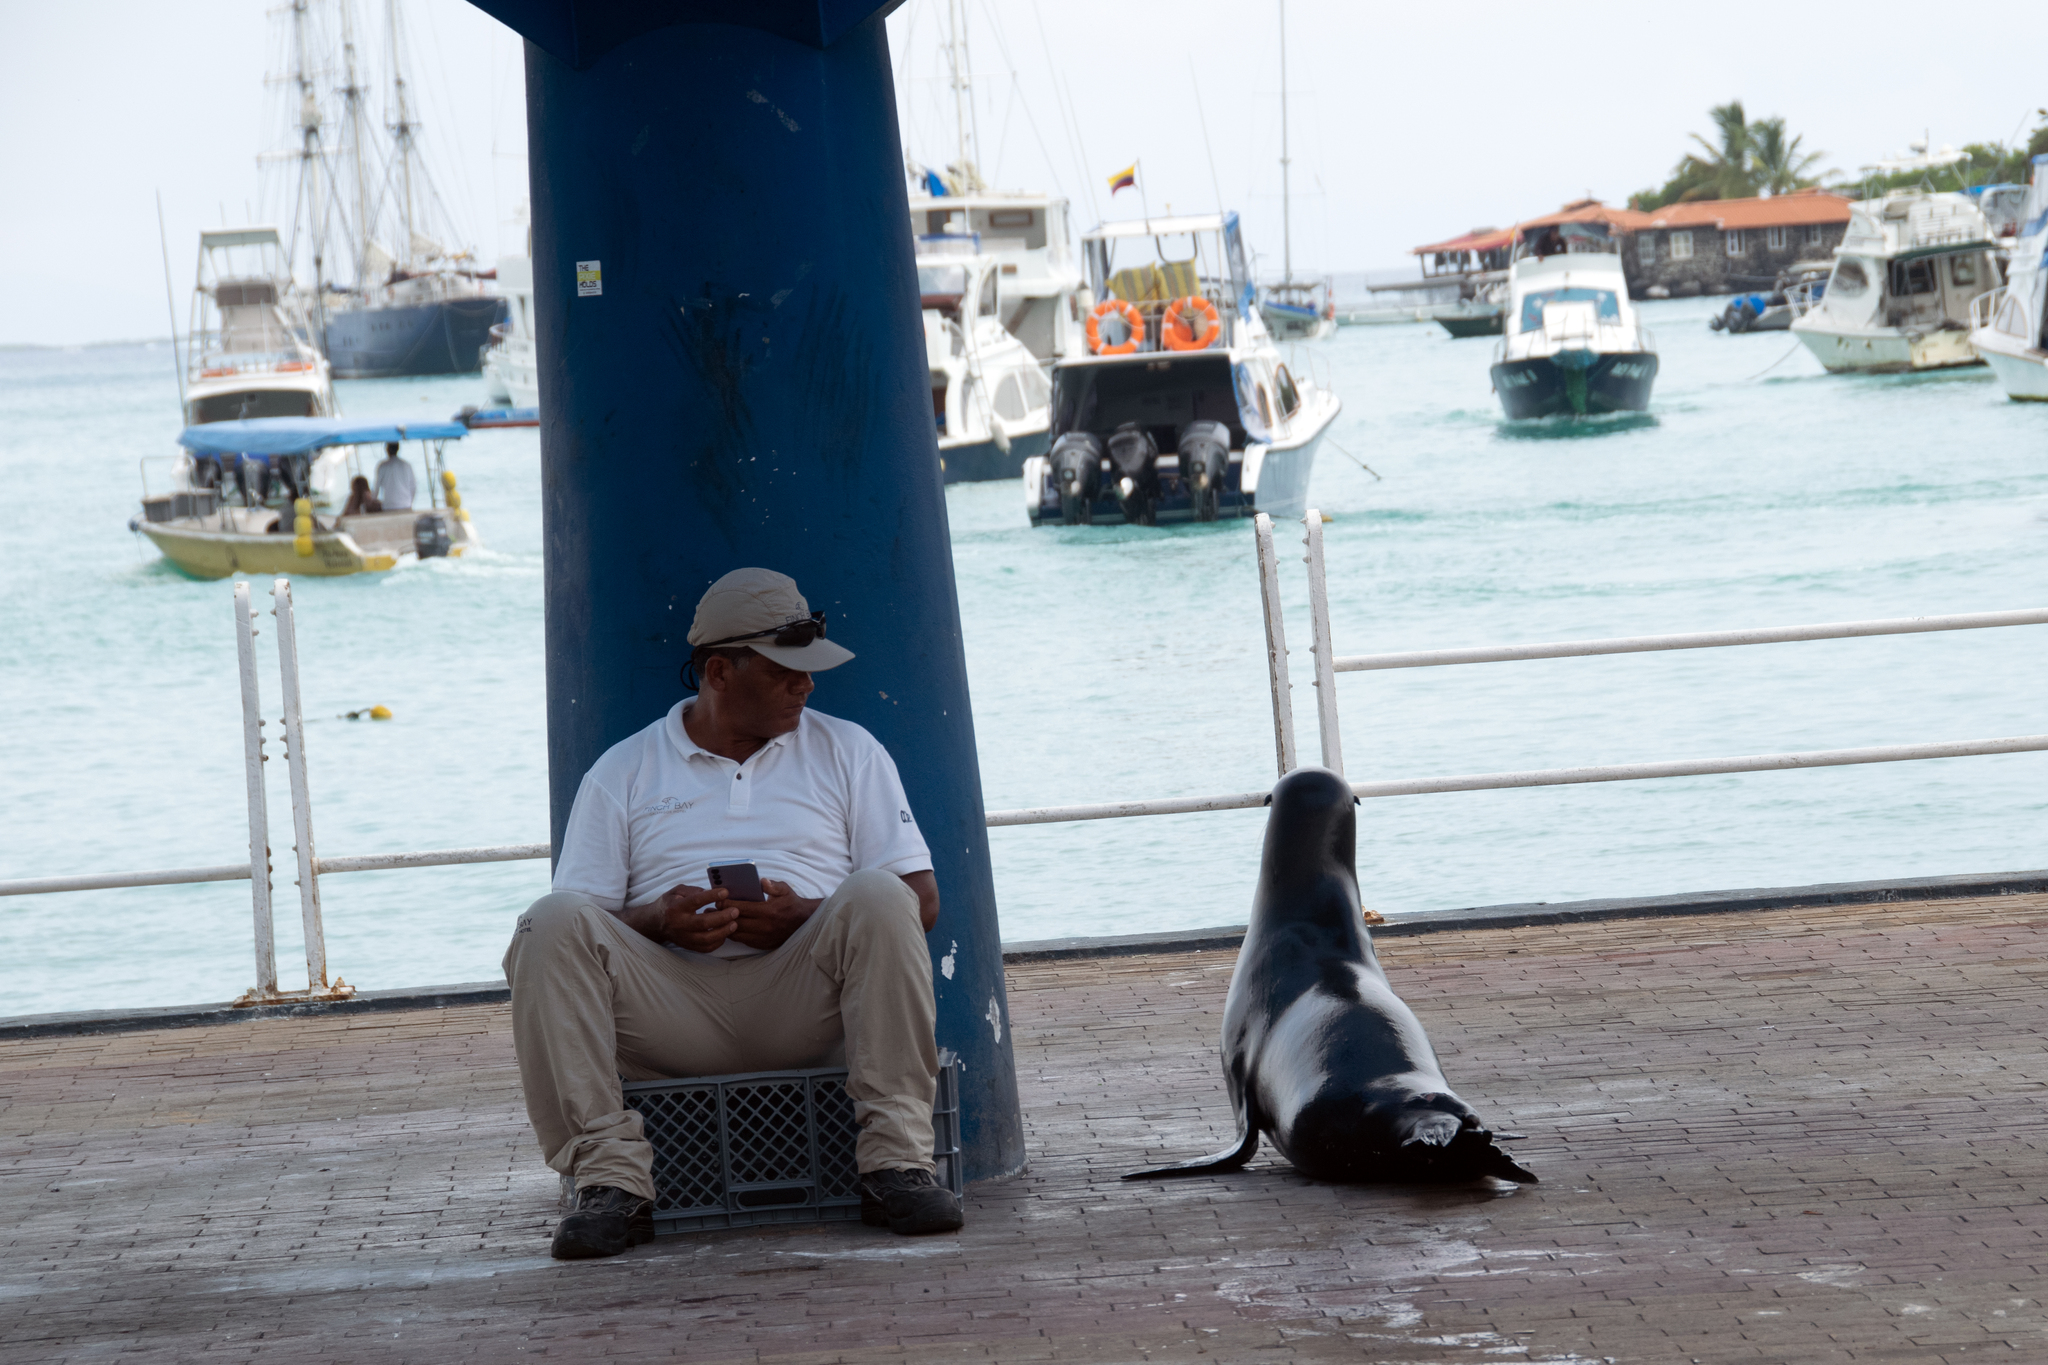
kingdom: Animalia
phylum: Chordata
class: Mammalia
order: Carnivora
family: Otariidae
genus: Zalophus
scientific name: Zalophus wollebaeki
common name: Galapagos sea lion
